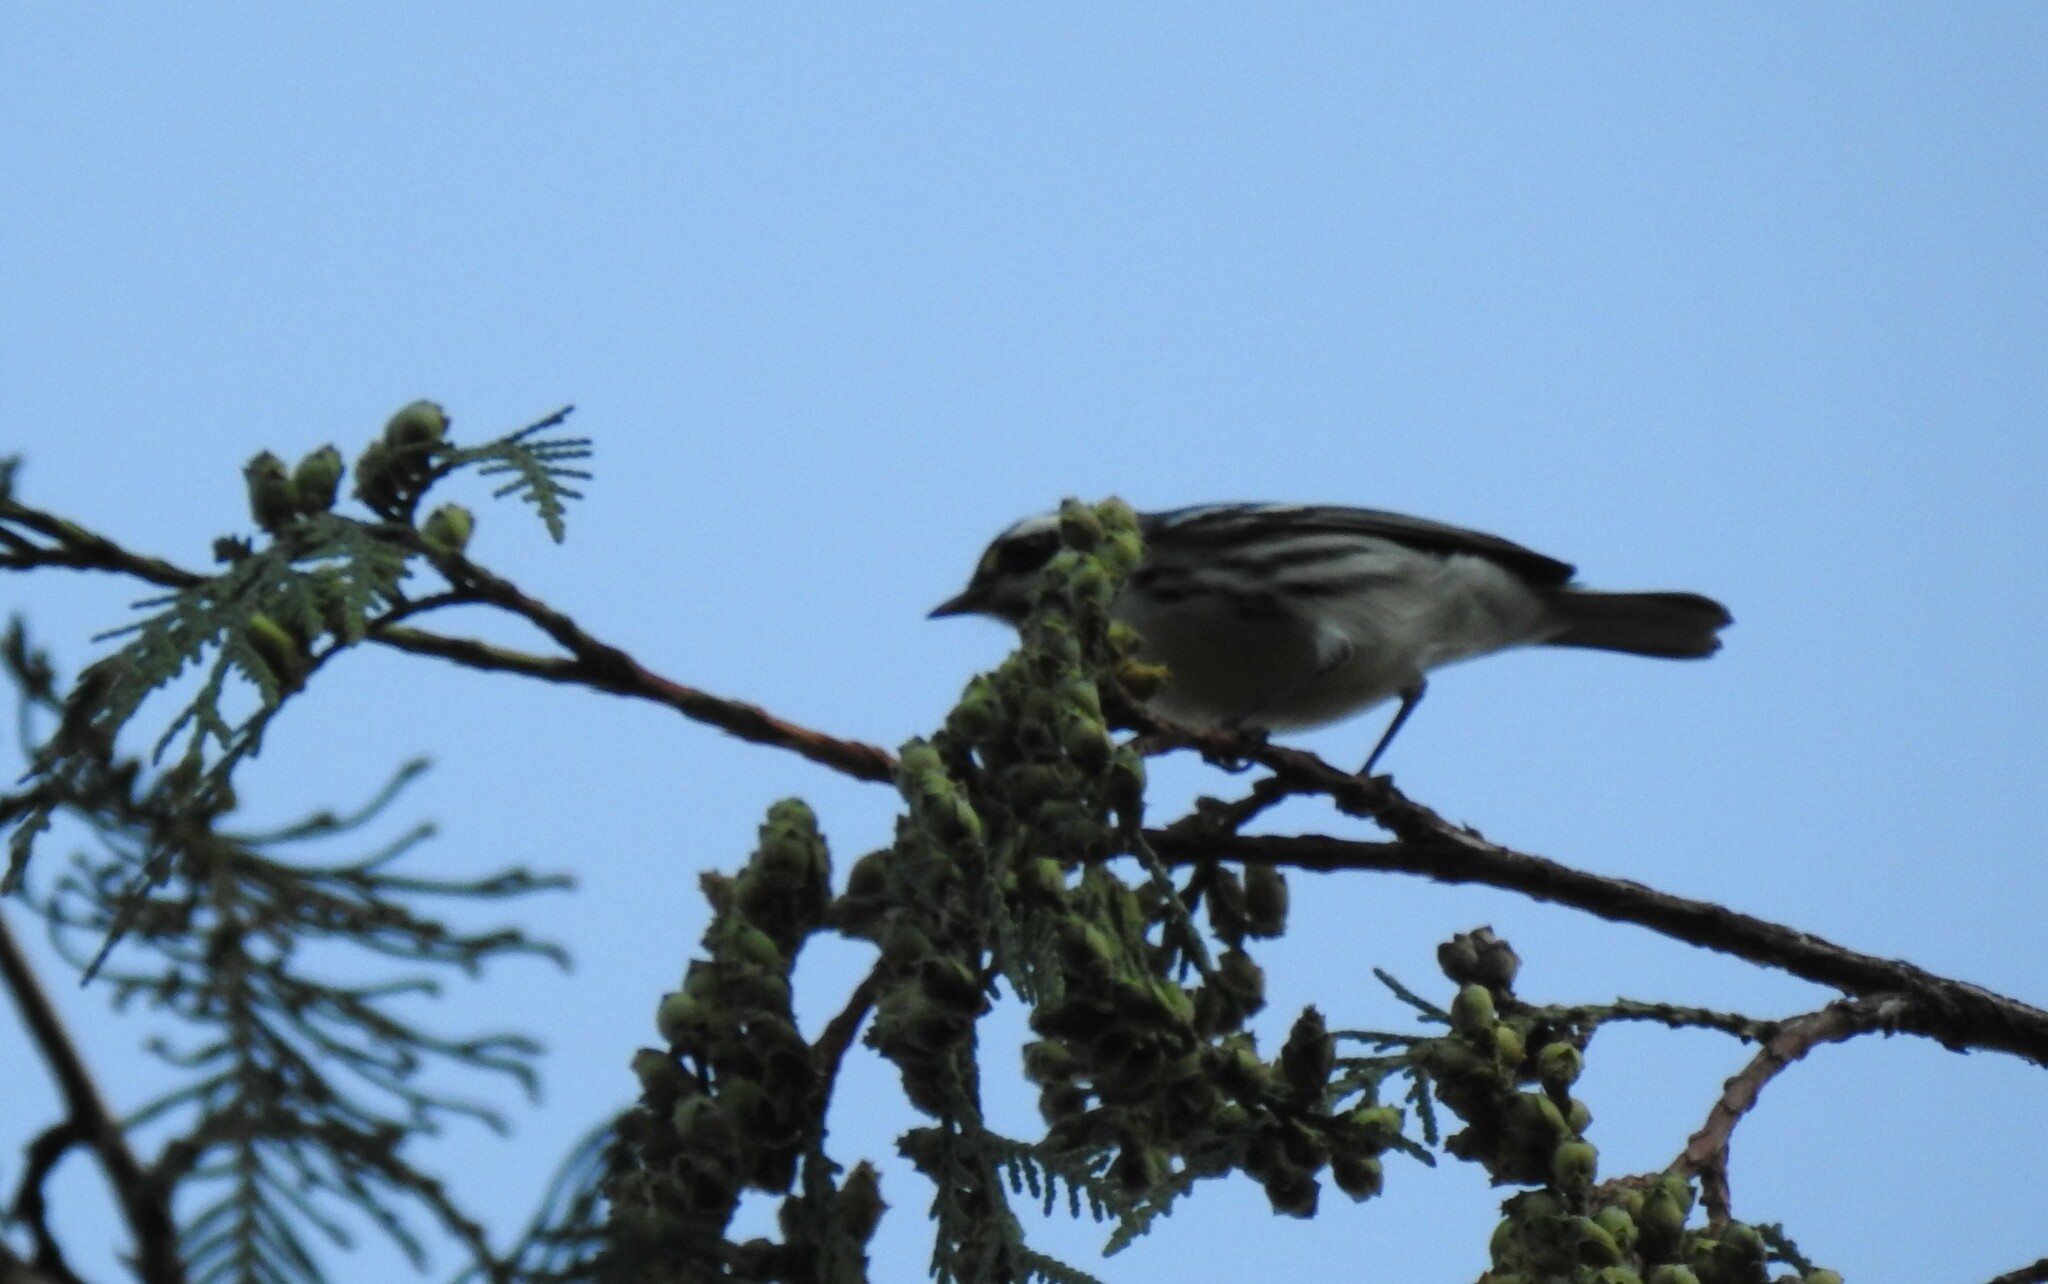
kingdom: Animalia
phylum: Chordata
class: Aves
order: Passeriformes
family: Parulidae
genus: Setophaga
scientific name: Setophaga nigrescens
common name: Black-throated gray warbler
